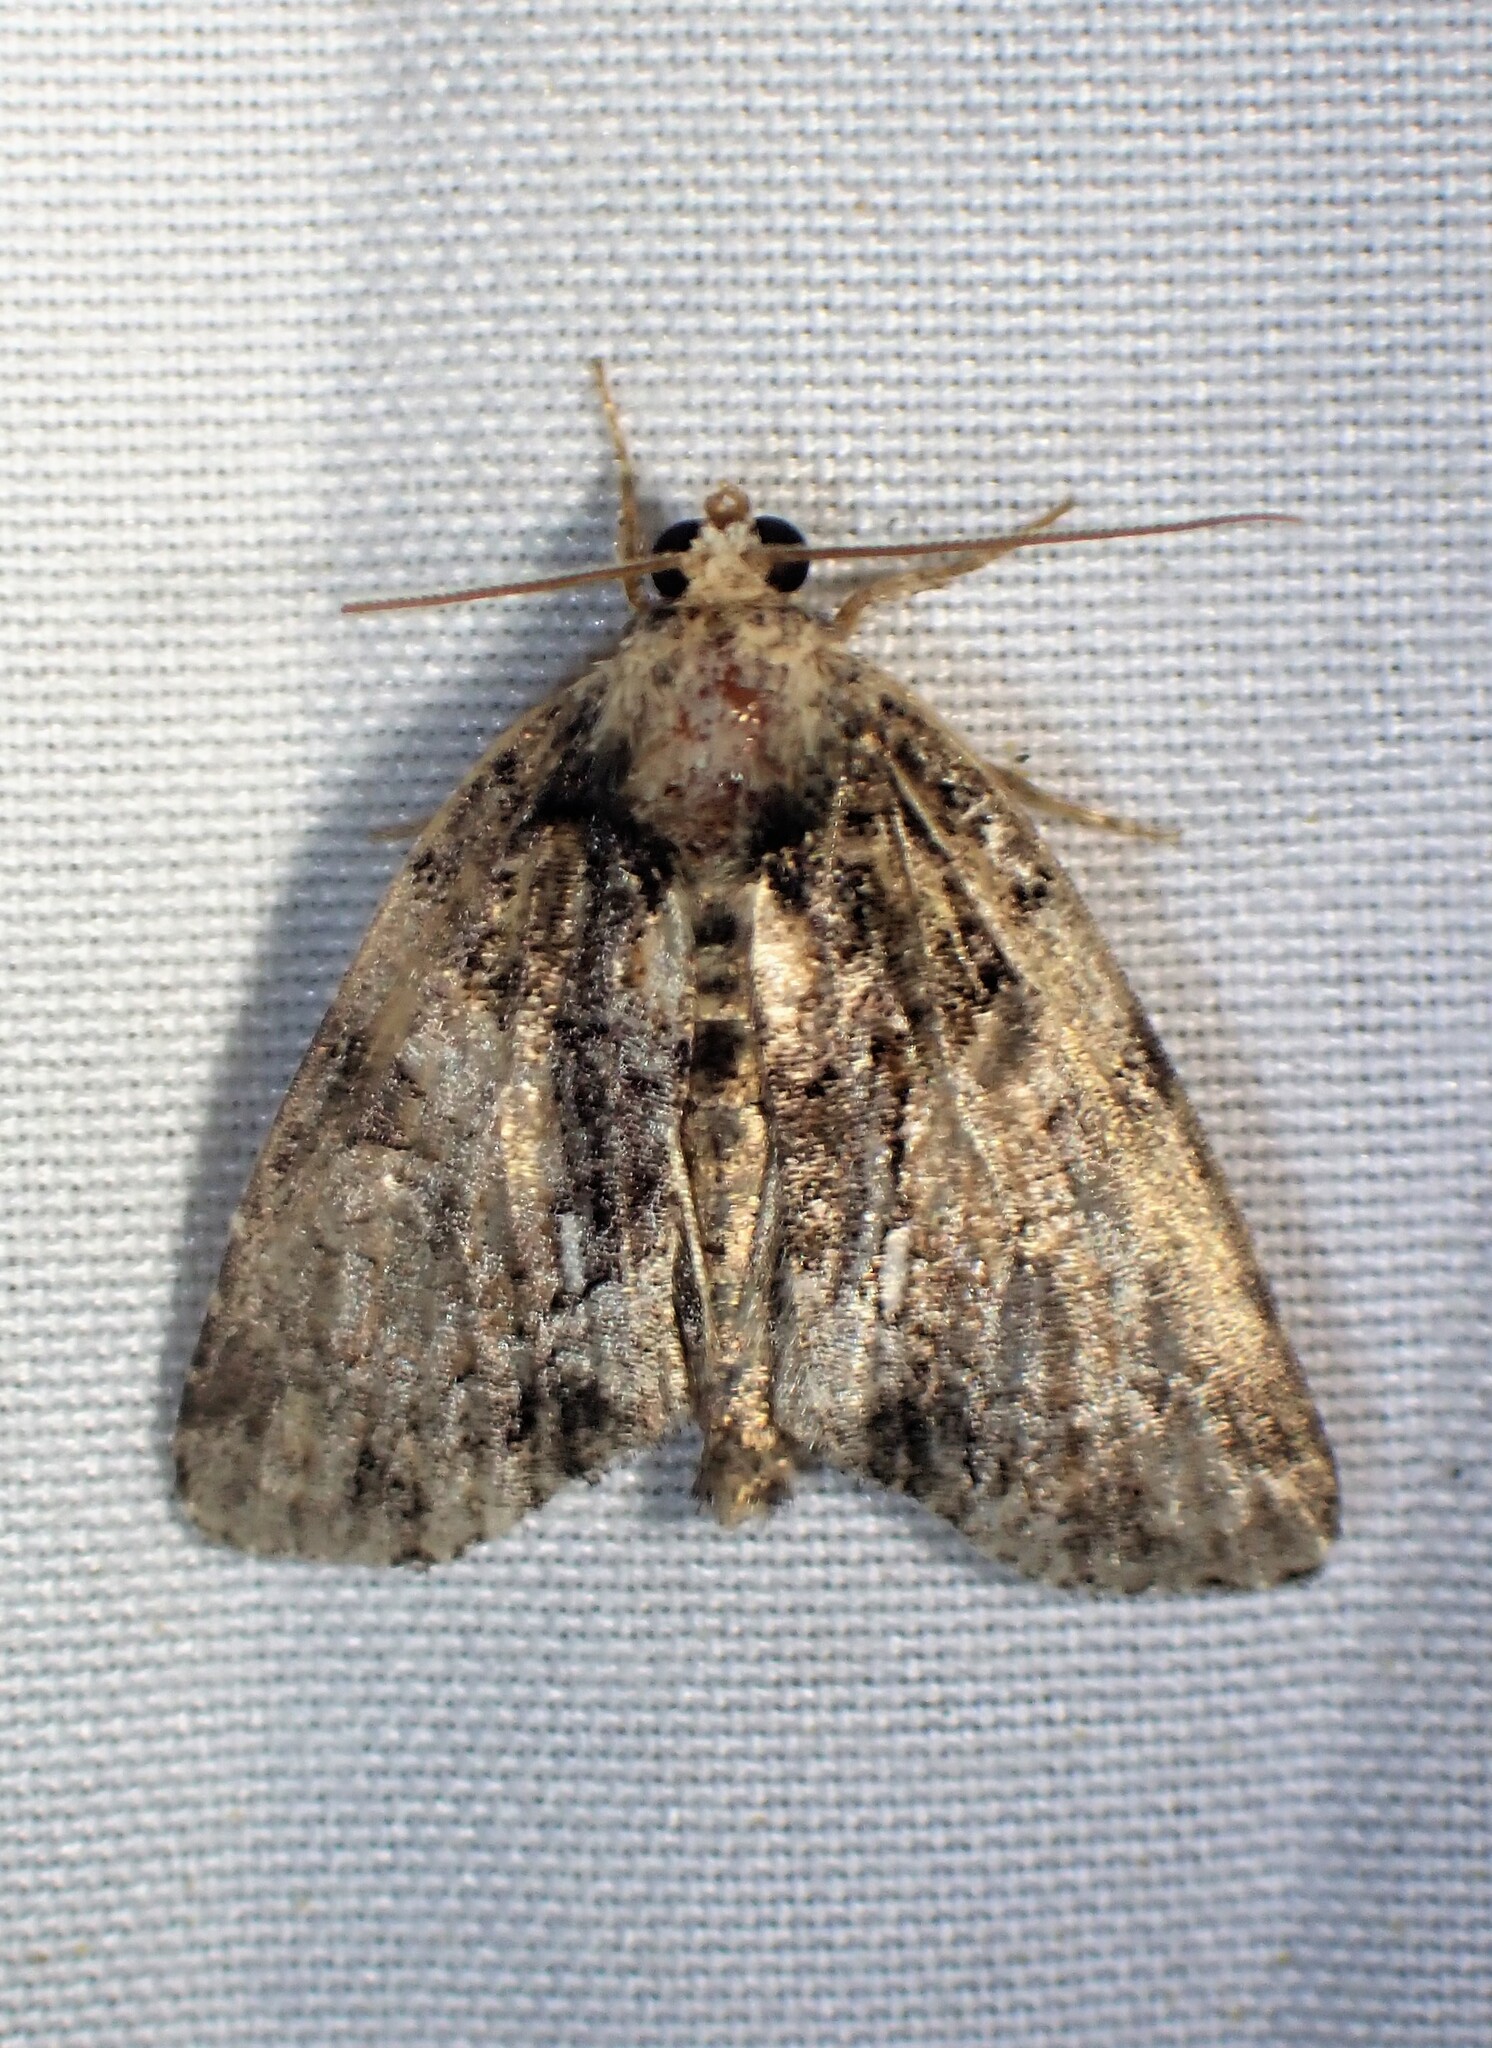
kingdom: Animalia
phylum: Arthropoda
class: Insecta
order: Lepidoptera
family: Noctuidae
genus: Chytonix
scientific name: Chytonix palliatricula
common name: Cloaked marvel
